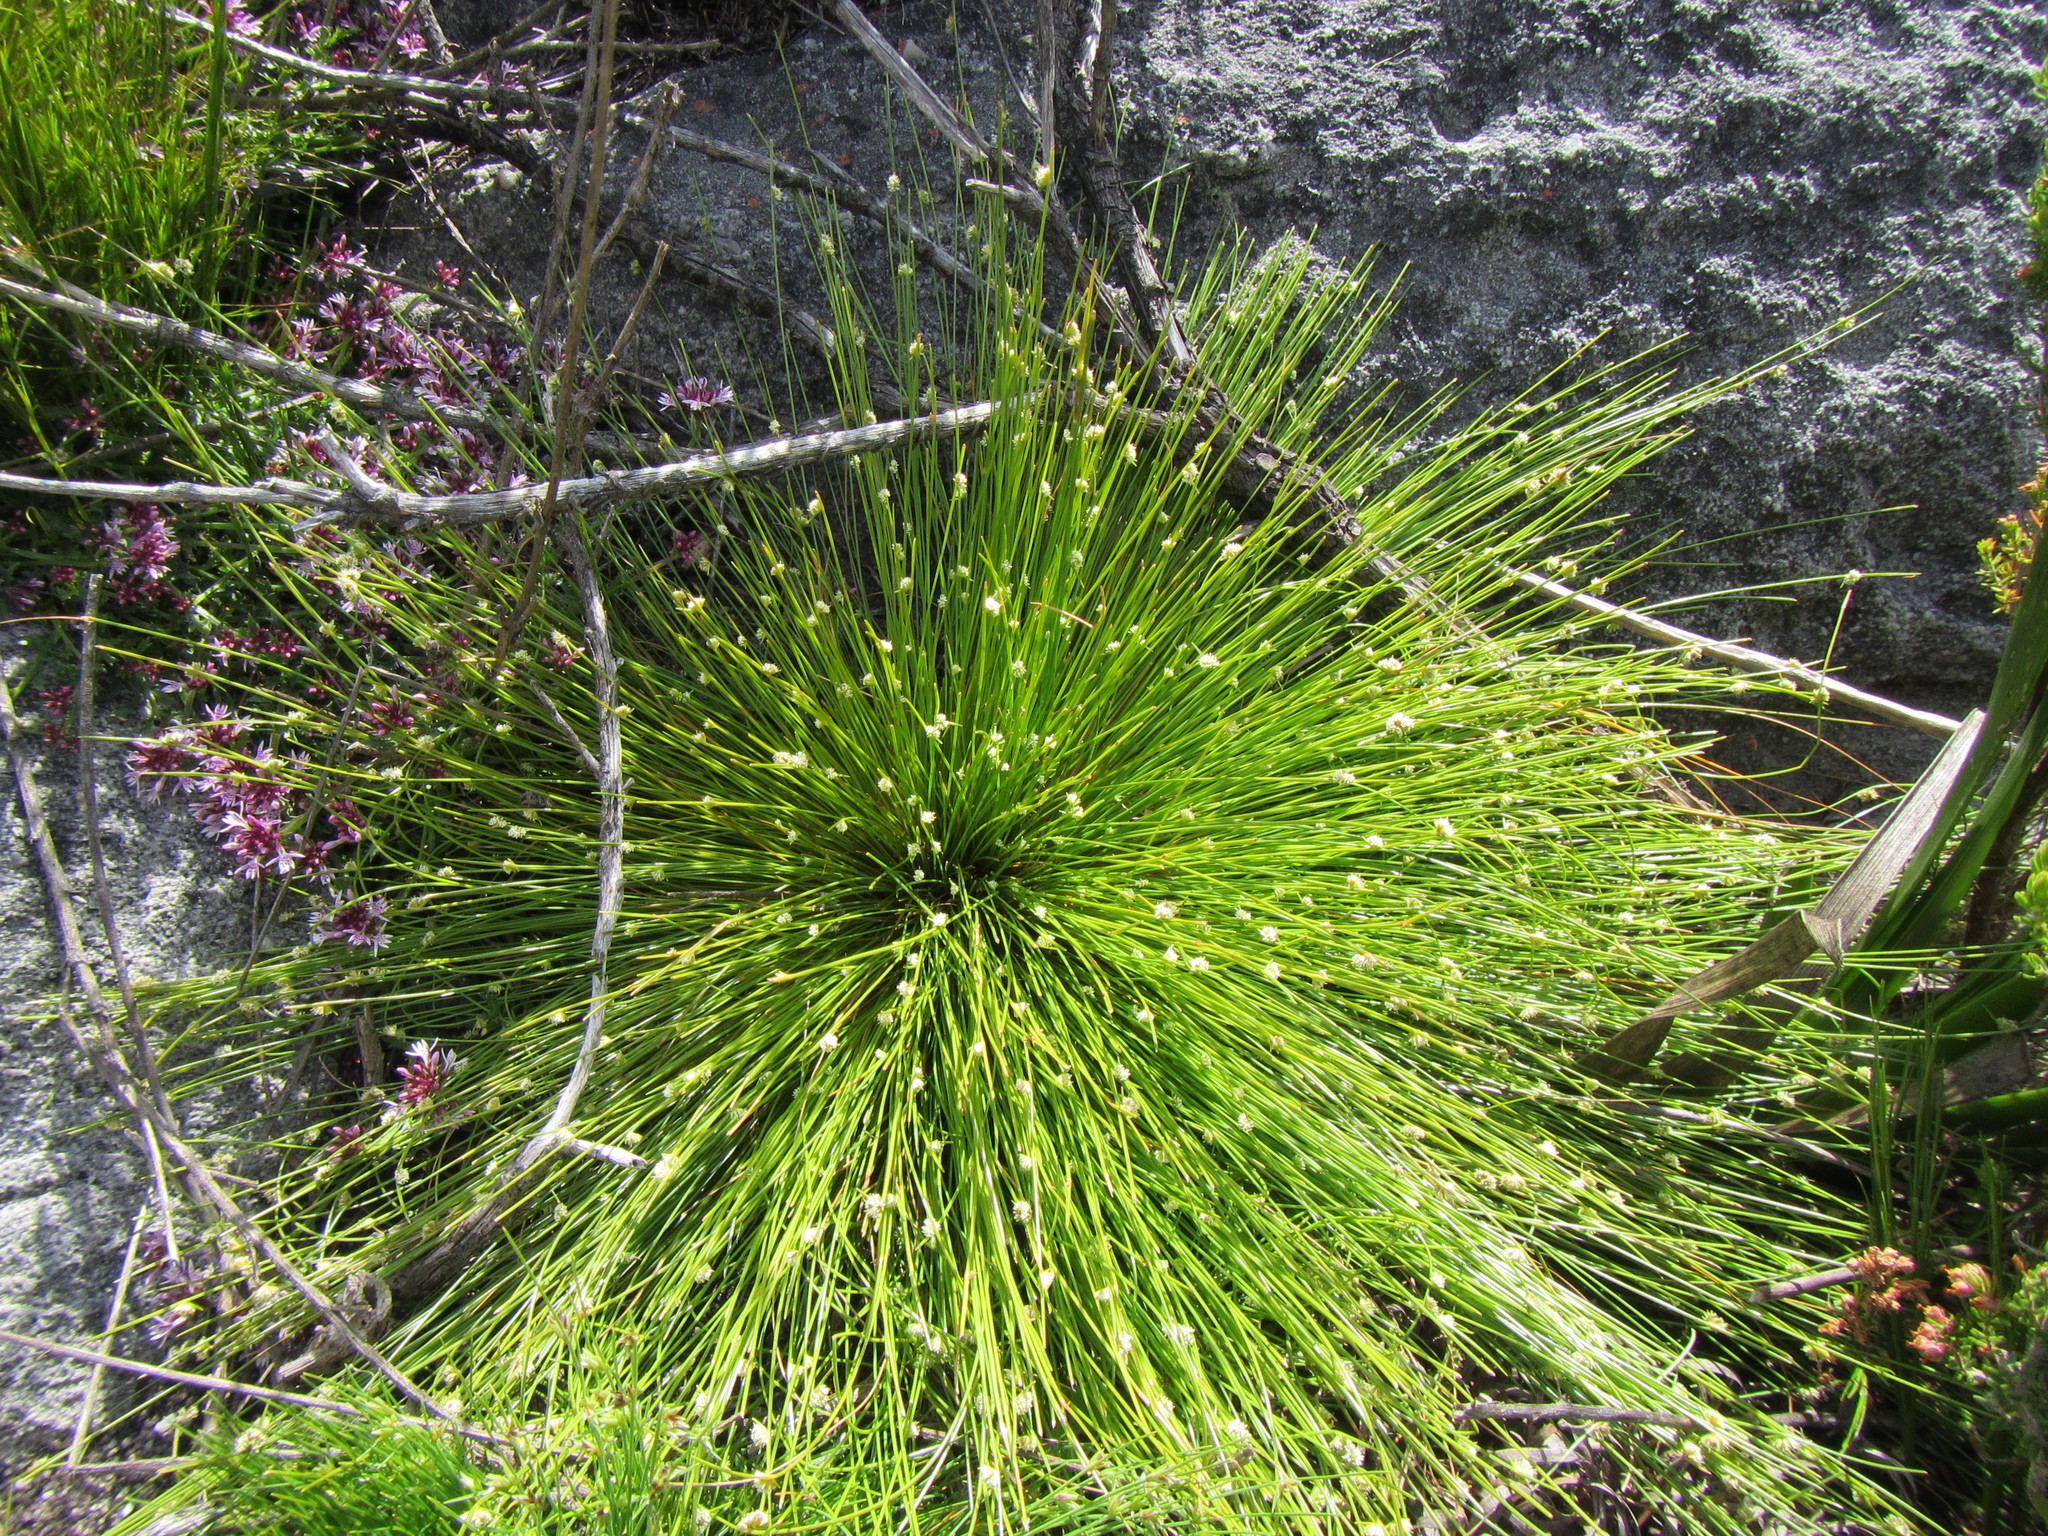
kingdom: Plantae
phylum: Tracheophyta
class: Liliopsida
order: Poales
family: Cyperaceae
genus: Ficinia
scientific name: Ficinia minutiflora
